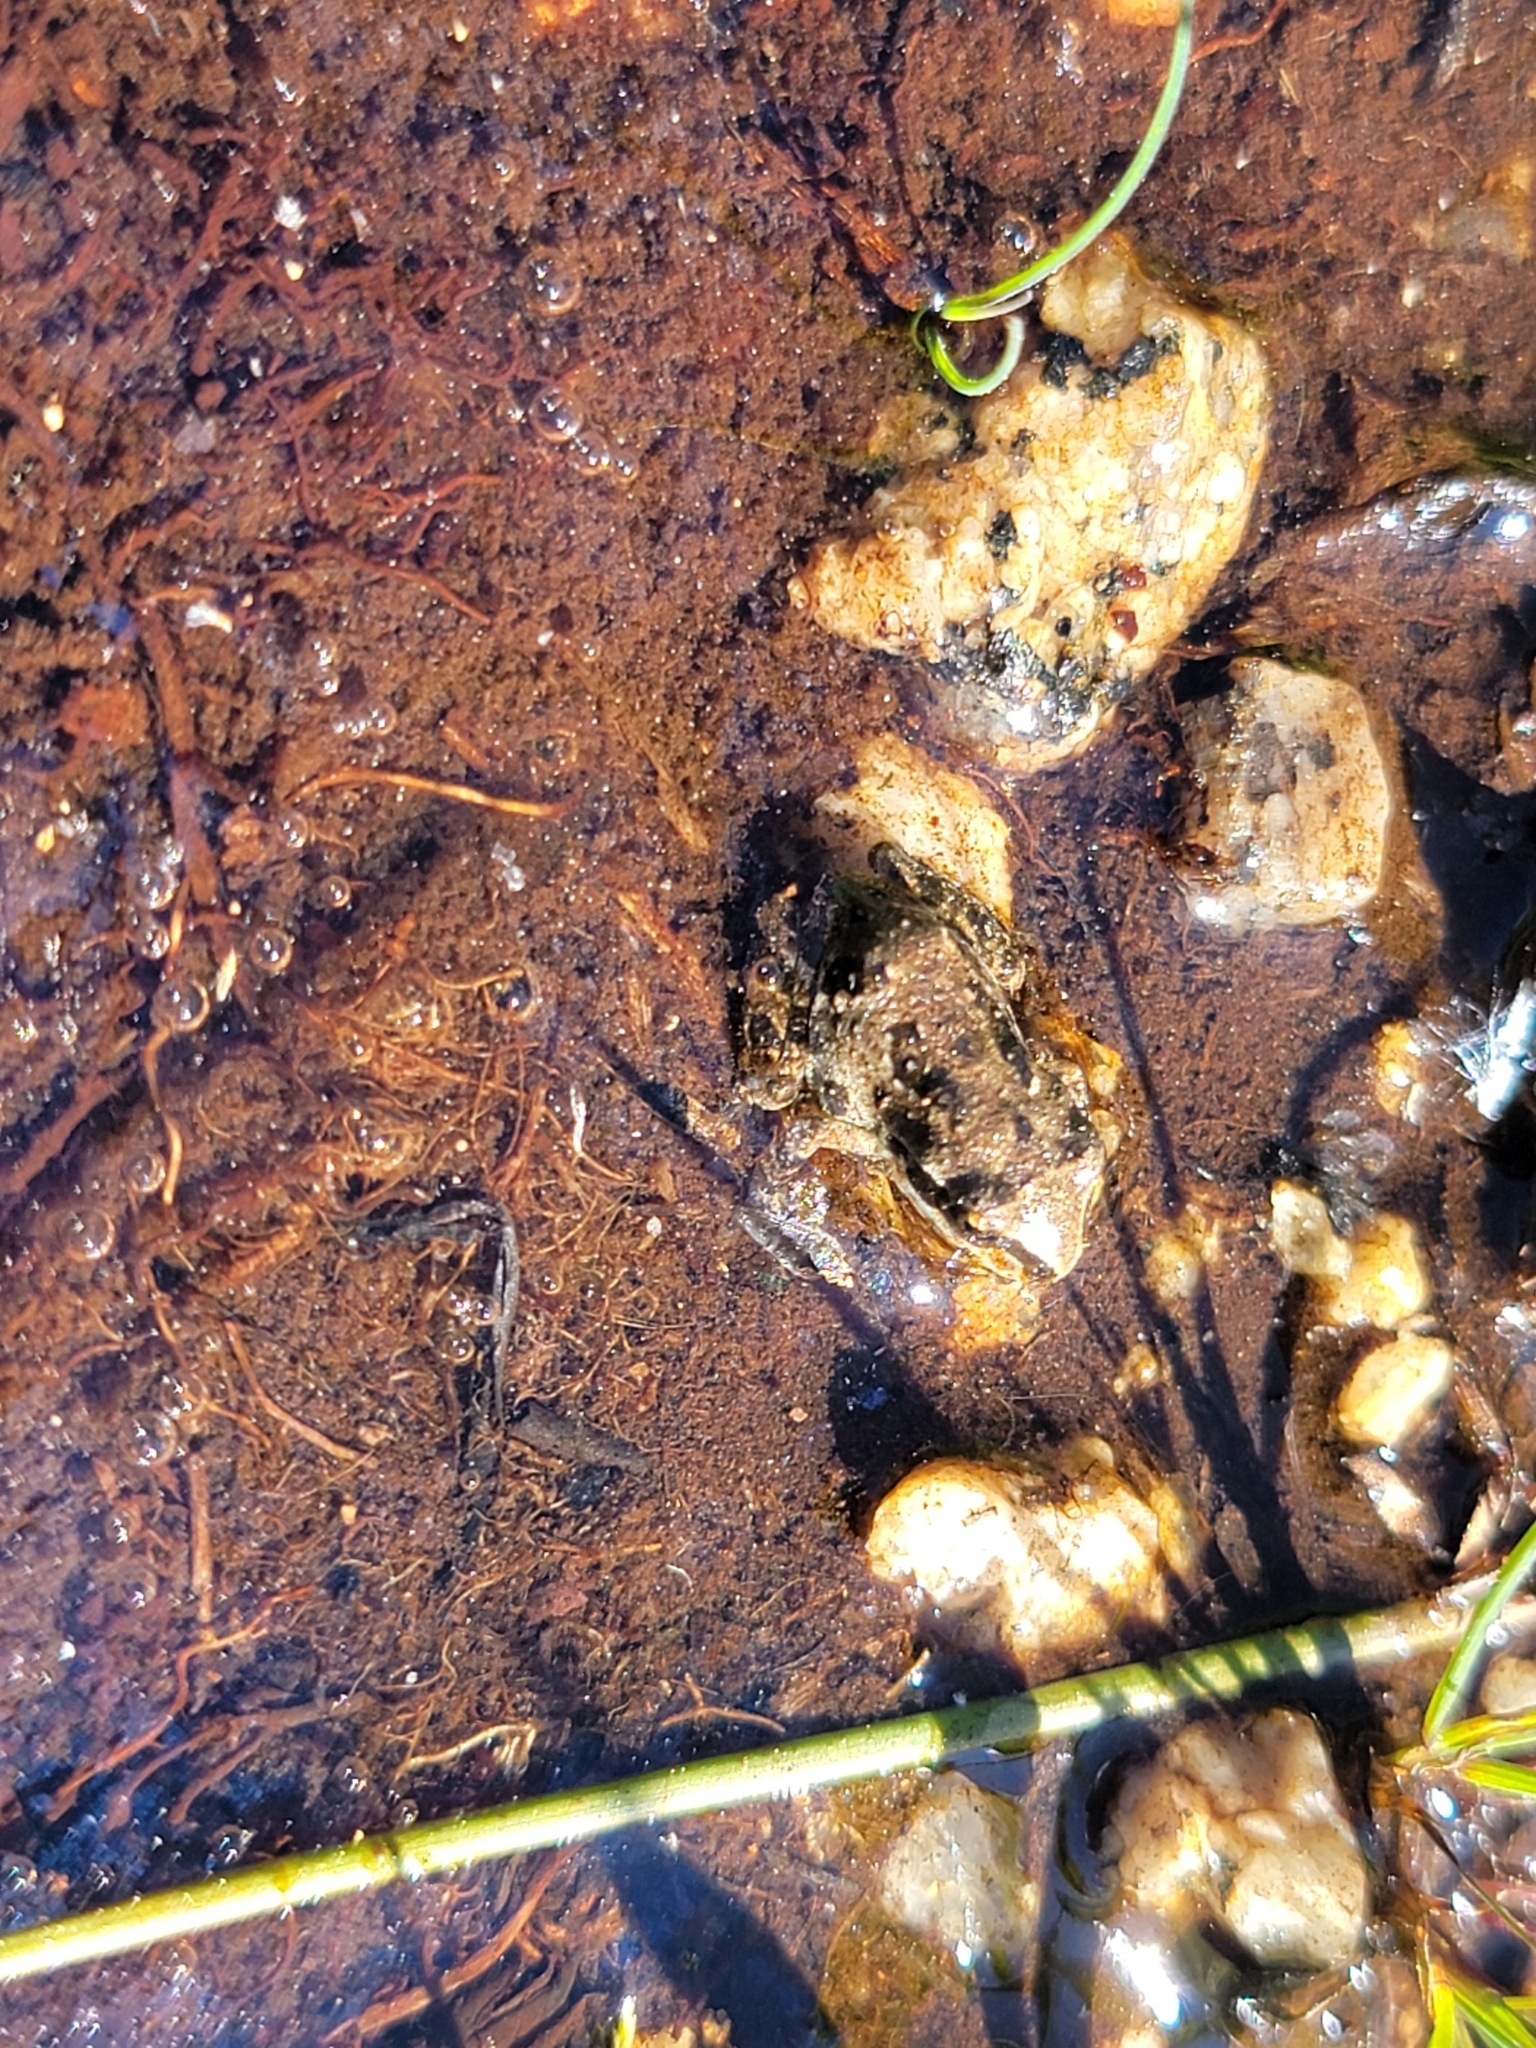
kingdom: Animalia
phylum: Chordata
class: Amphibia
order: Anura
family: Hylidae
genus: Pseudacris
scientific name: Pseudacris regilla
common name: Pacific chorus frog
